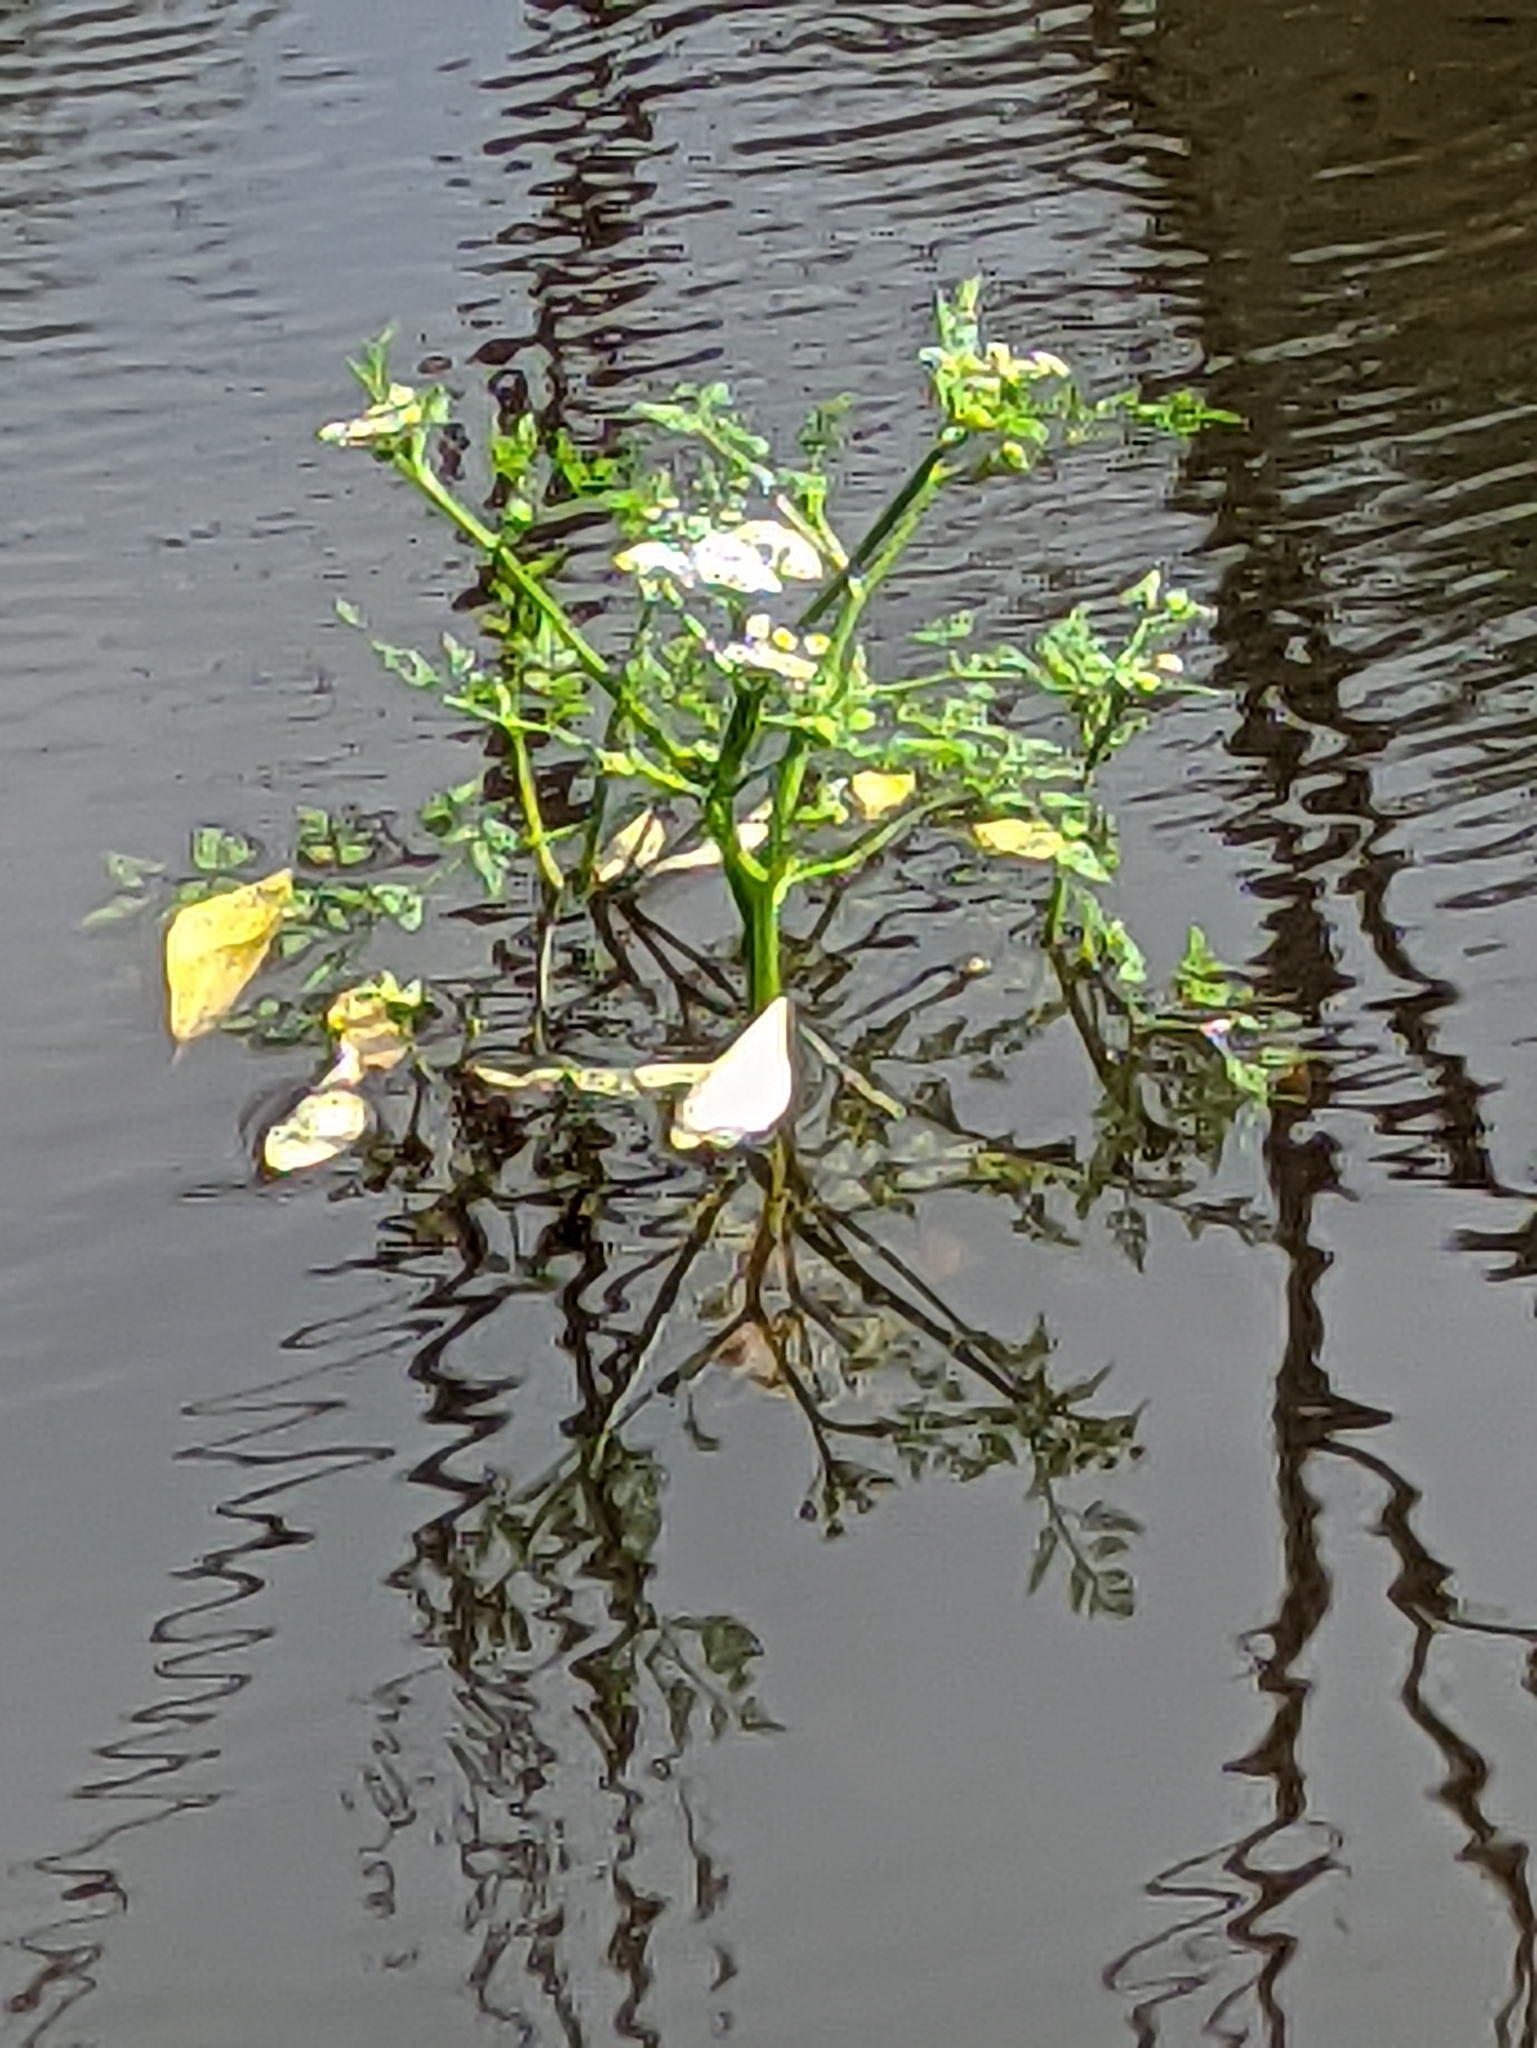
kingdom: Plantae
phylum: Tracheophyta
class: Magnoliopsida
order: Apiales
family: Apiaceae
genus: Oenanthe
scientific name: Oenanthe aquatica
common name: Fine-leaved water-dropwort
